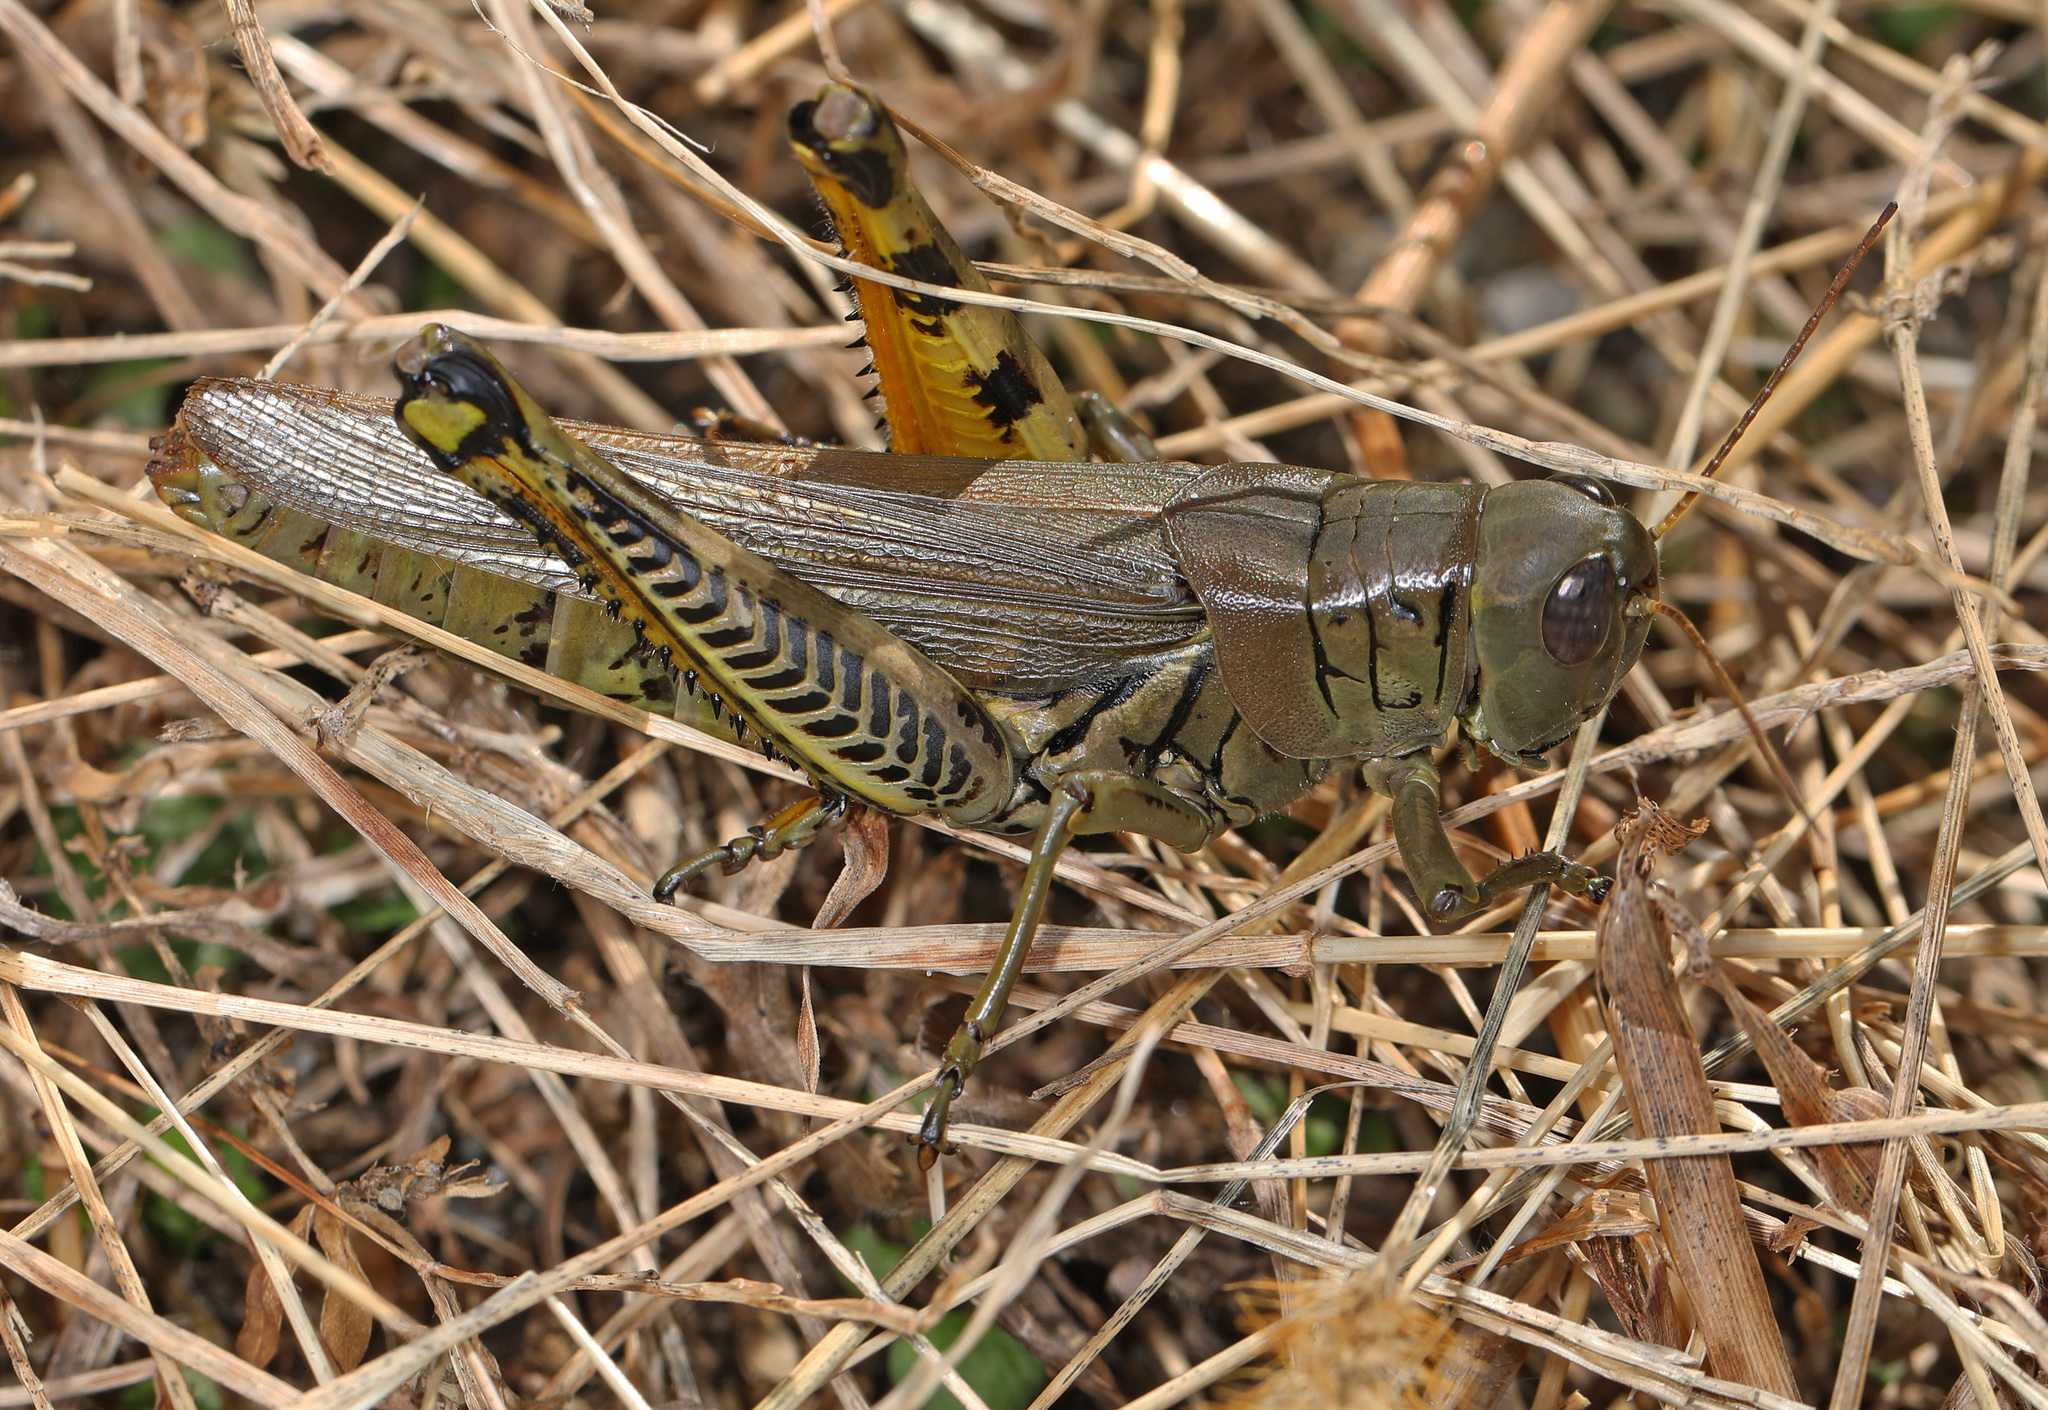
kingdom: Animalia
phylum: Arthropoda
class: Insecta
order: Orthoptera
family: Acrididae
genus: Melanoplus
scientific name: Melanoplus differentialis
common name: Differential grasshopper
